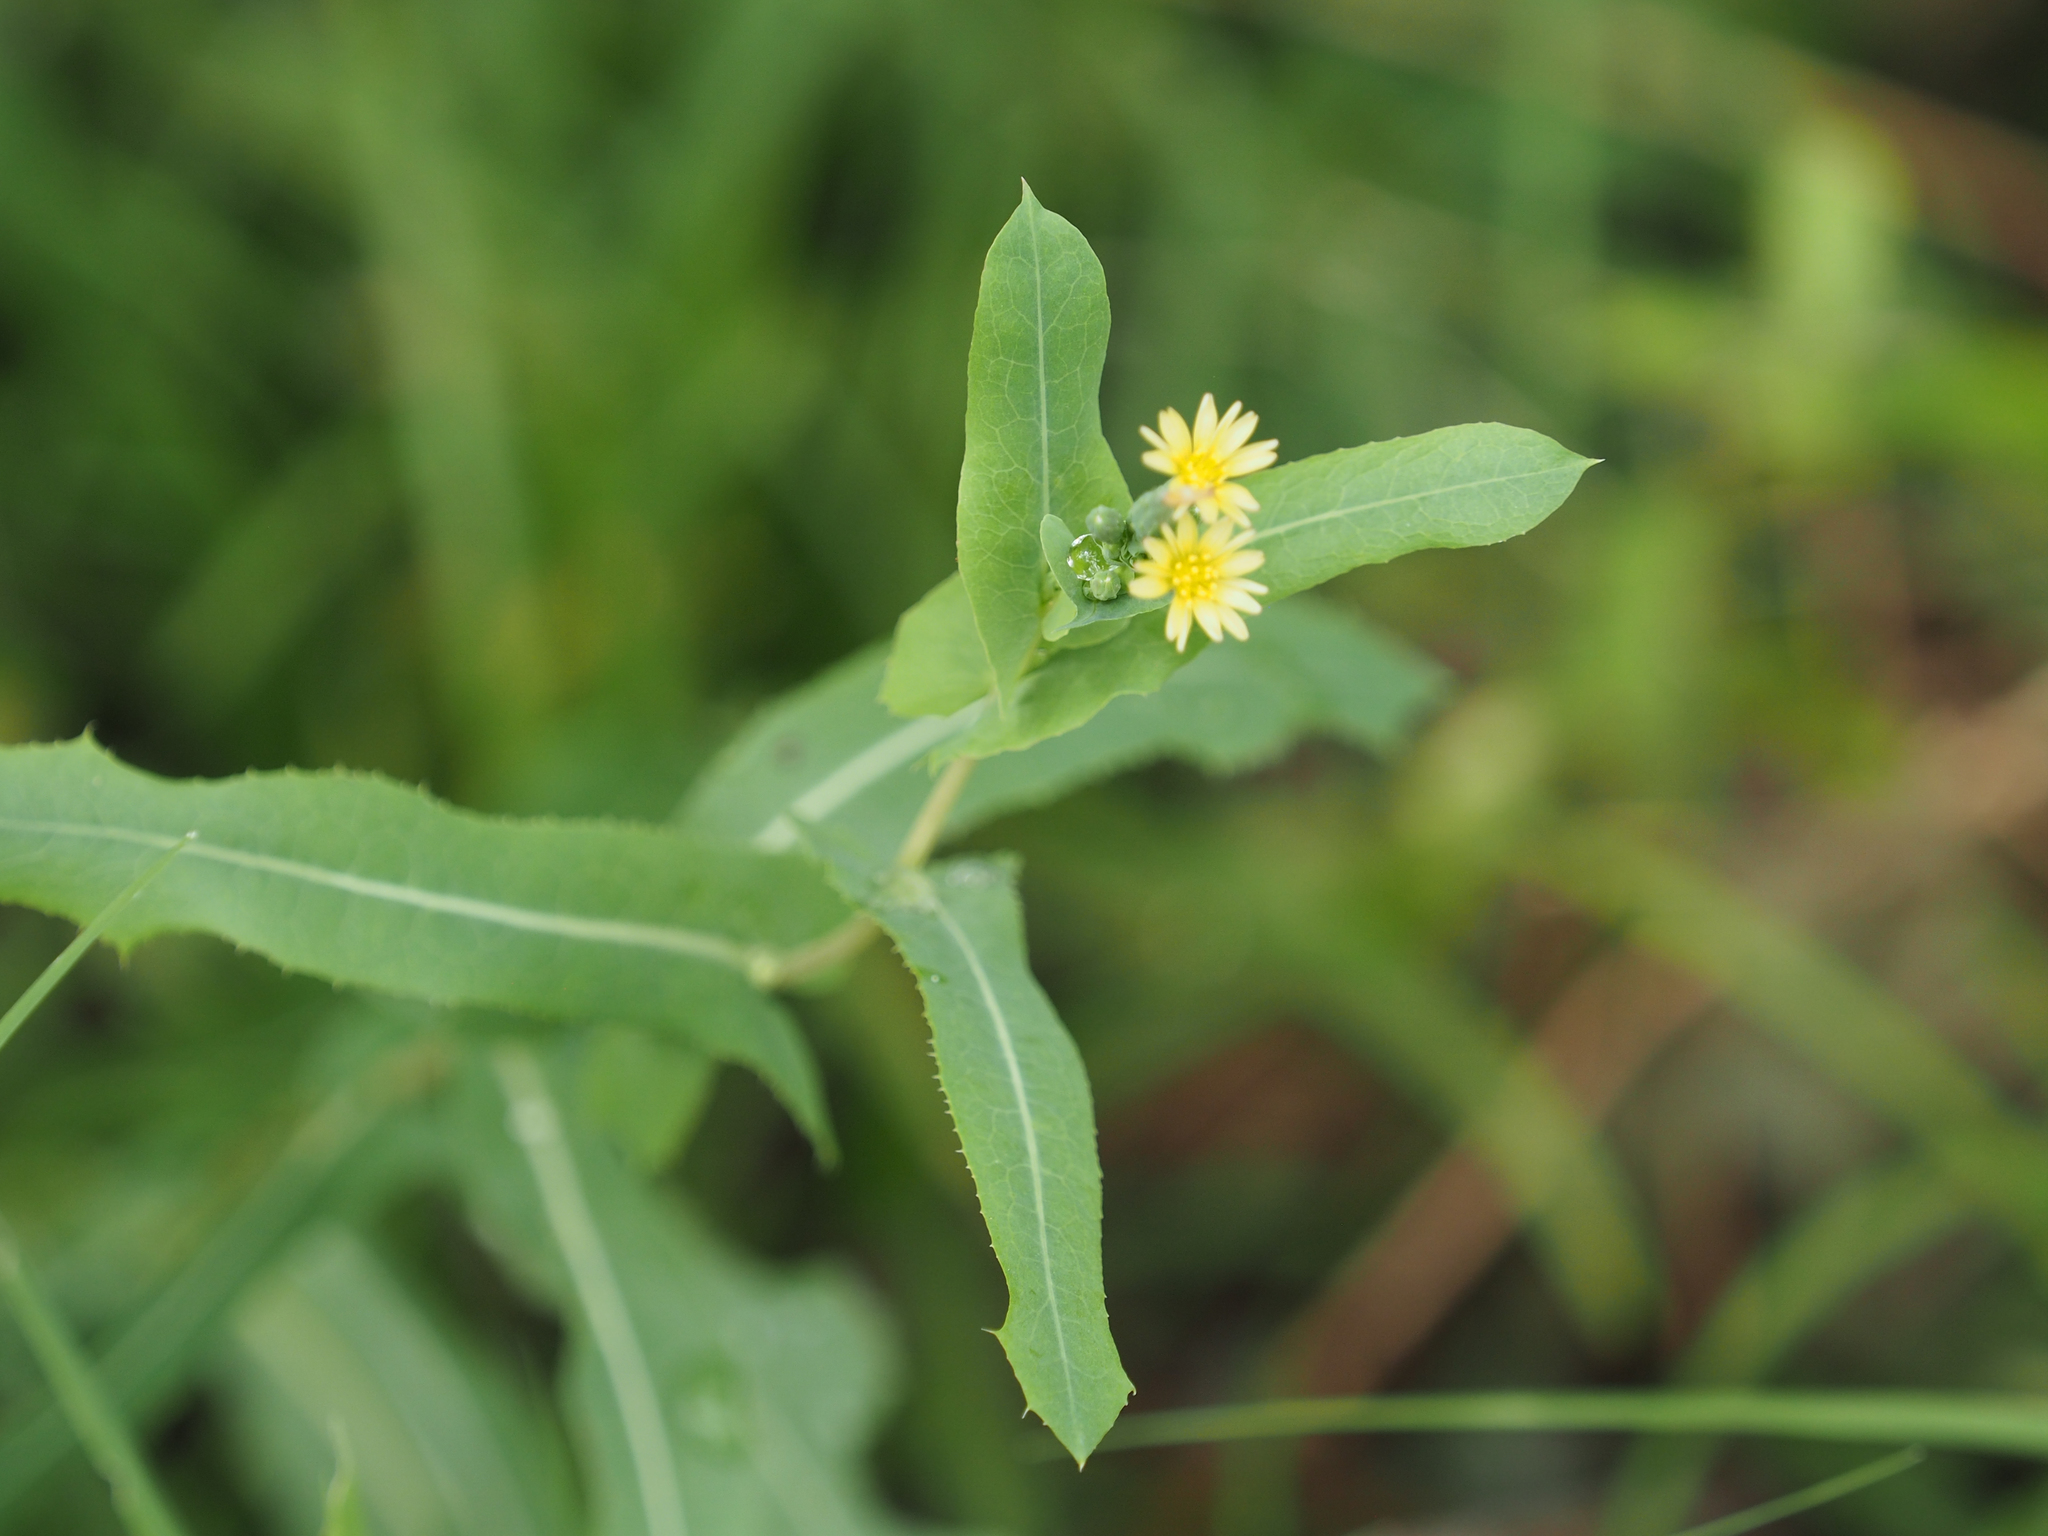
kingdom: Plantae
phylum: Tracheophyta
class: Magnoliopsida
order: Asterales
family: Asteraceae
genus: Lactuca
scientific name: Lactuca serriola
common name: Prickly lettuce
